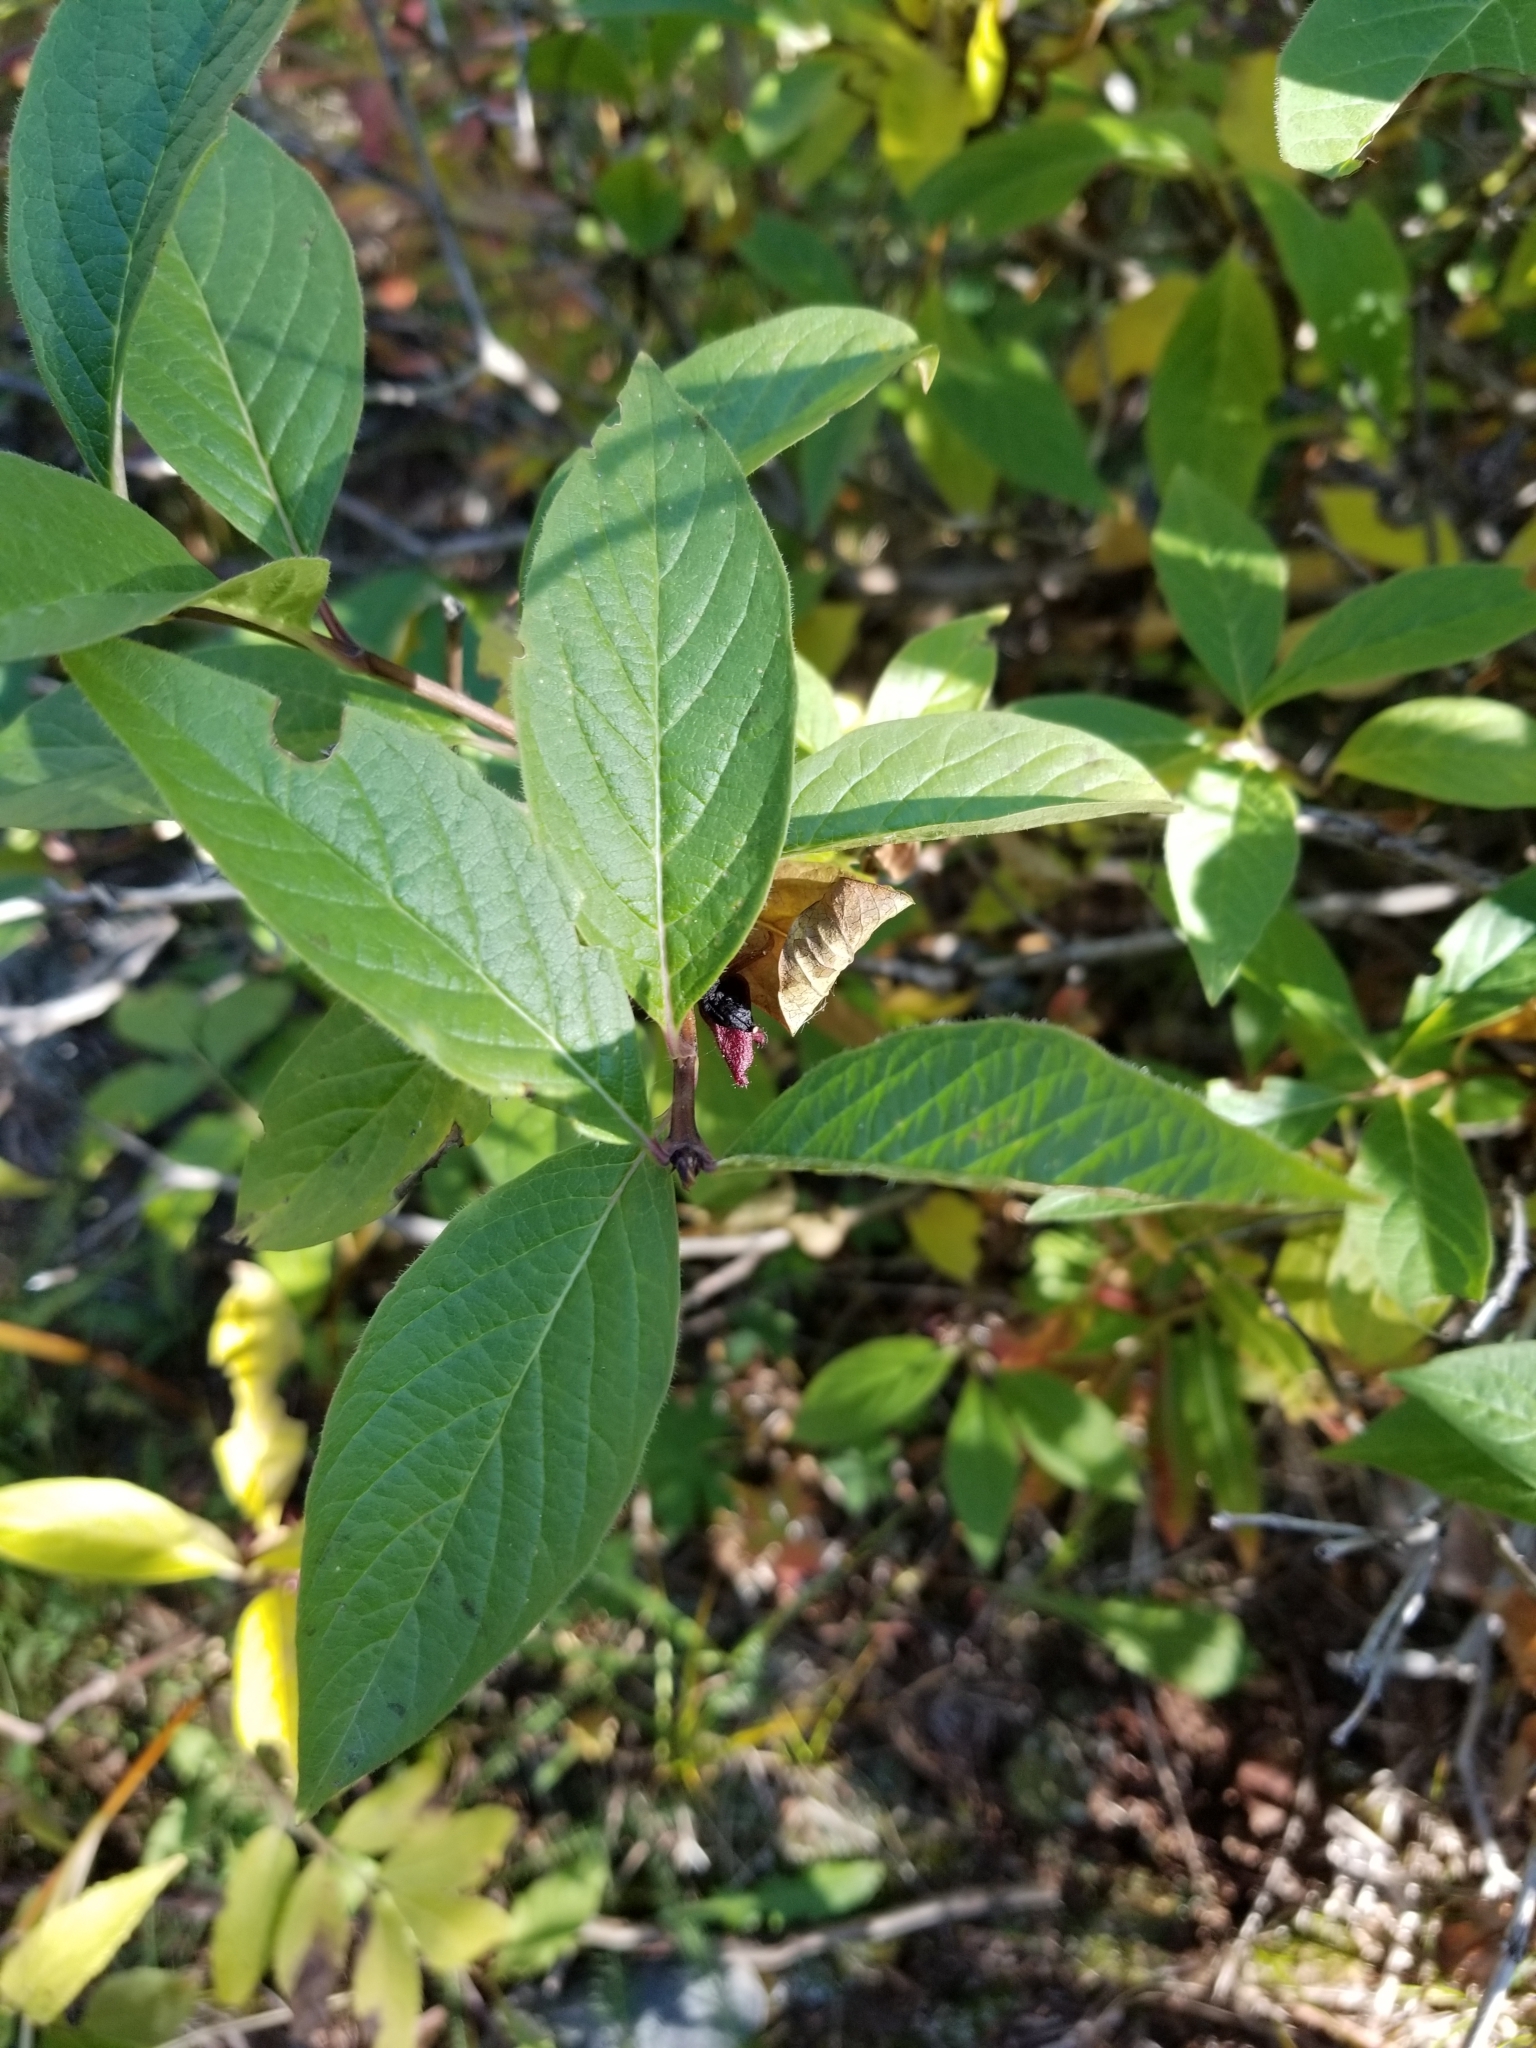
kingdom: Plantae
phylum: Tracheophyta
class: Magnoliopsida
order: Dipsacales
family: Caprifoliaceae
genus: Lonicera
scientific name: Lonicera involucrata
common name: Californian honeysuckle
